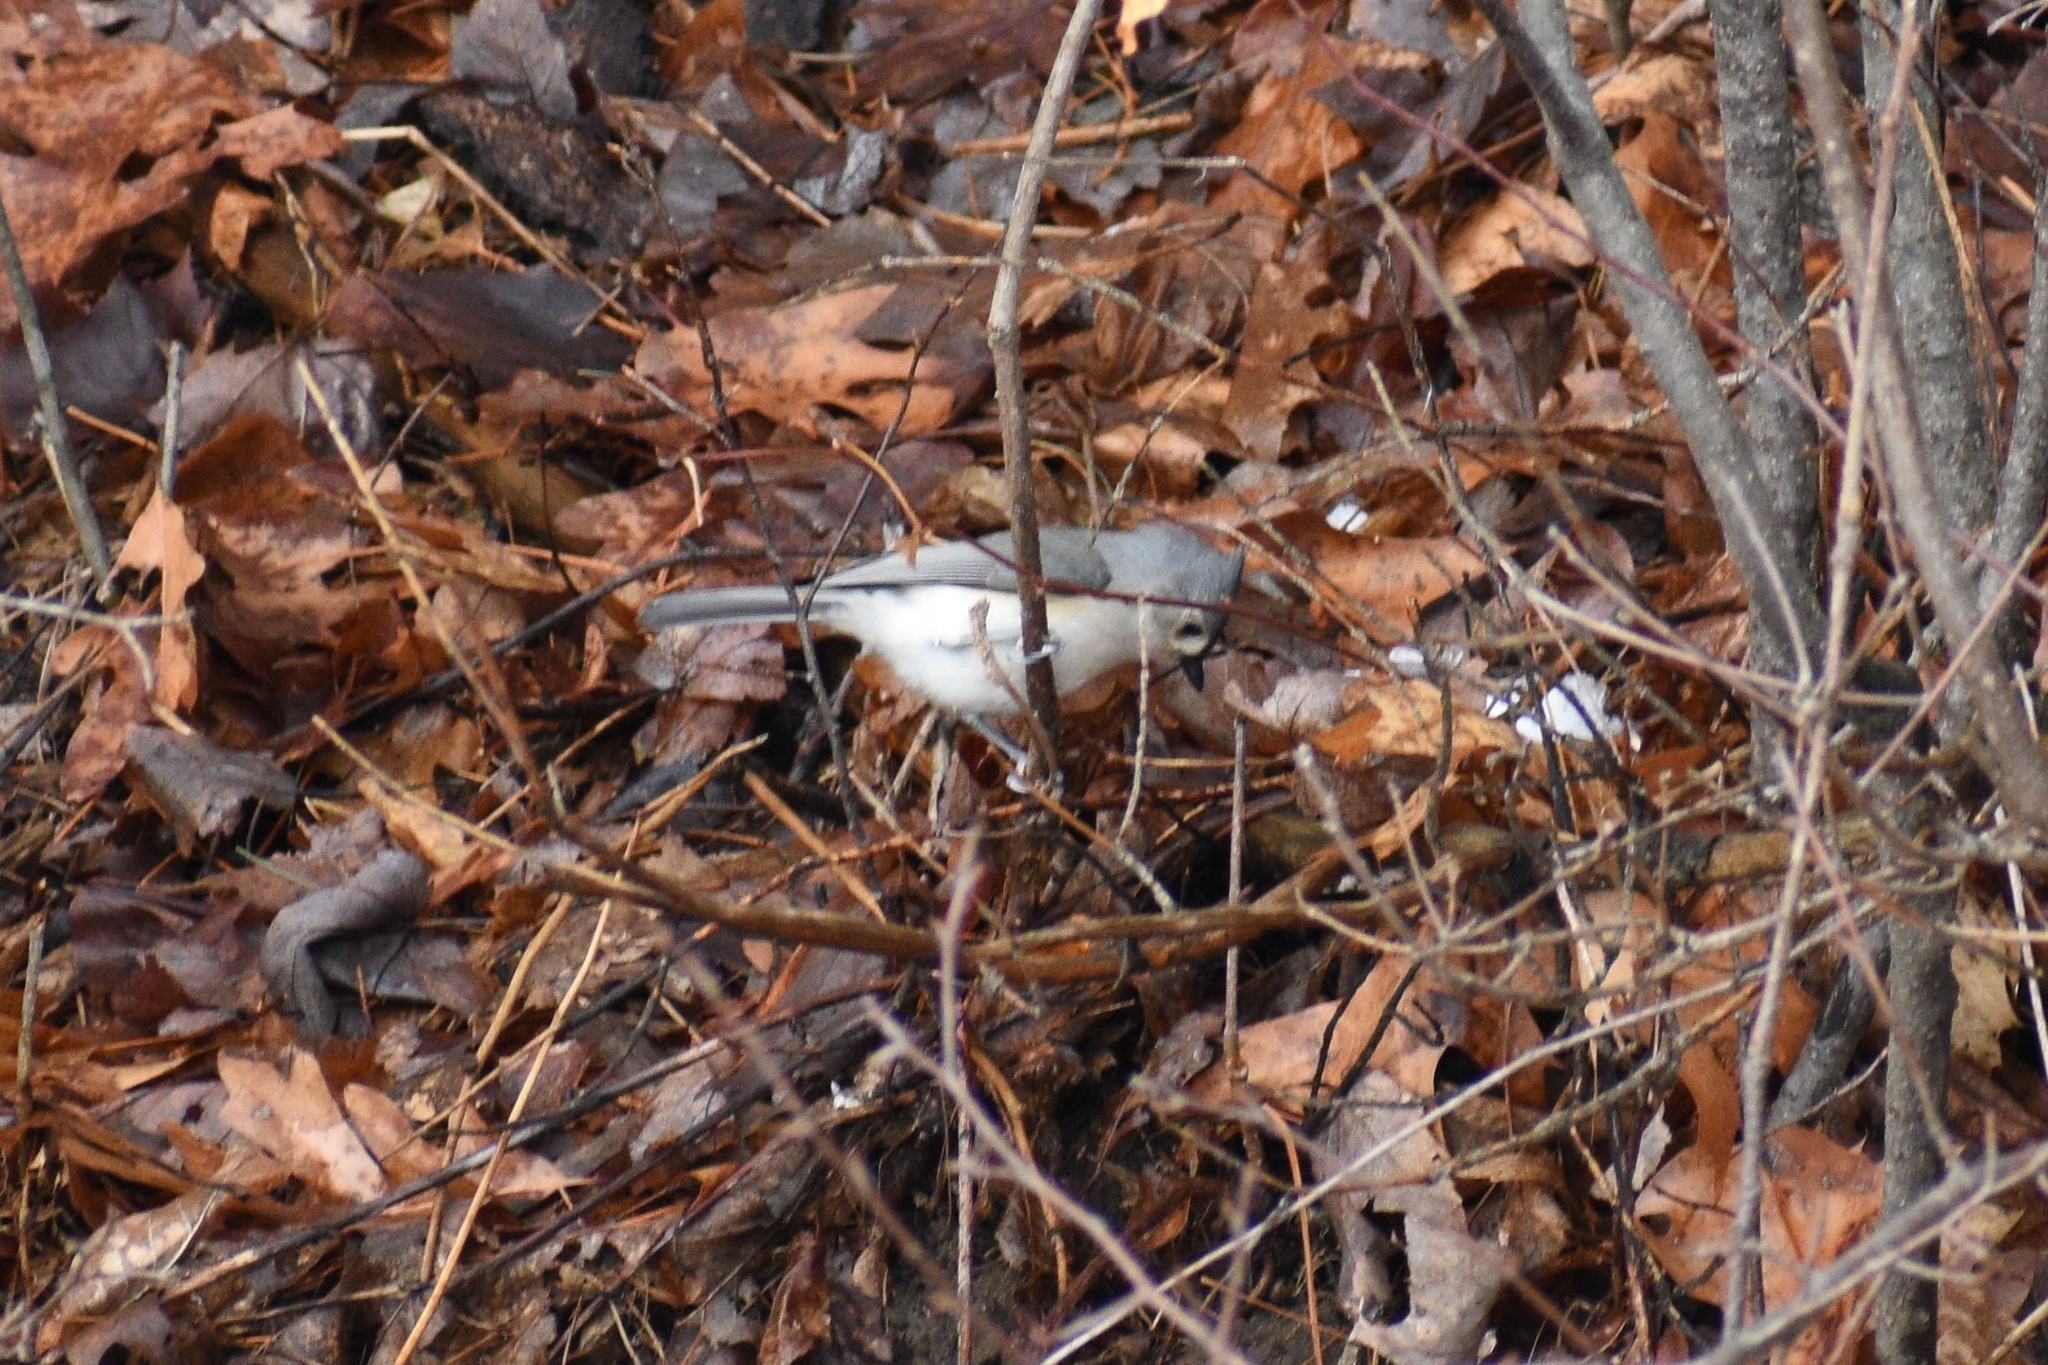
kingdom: Animalia
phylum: Chordata
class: Aves
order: Passeriformes
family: Paridae
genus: Baeolophus
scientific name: Baeolophus bicolor
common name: Tufted titmouse
